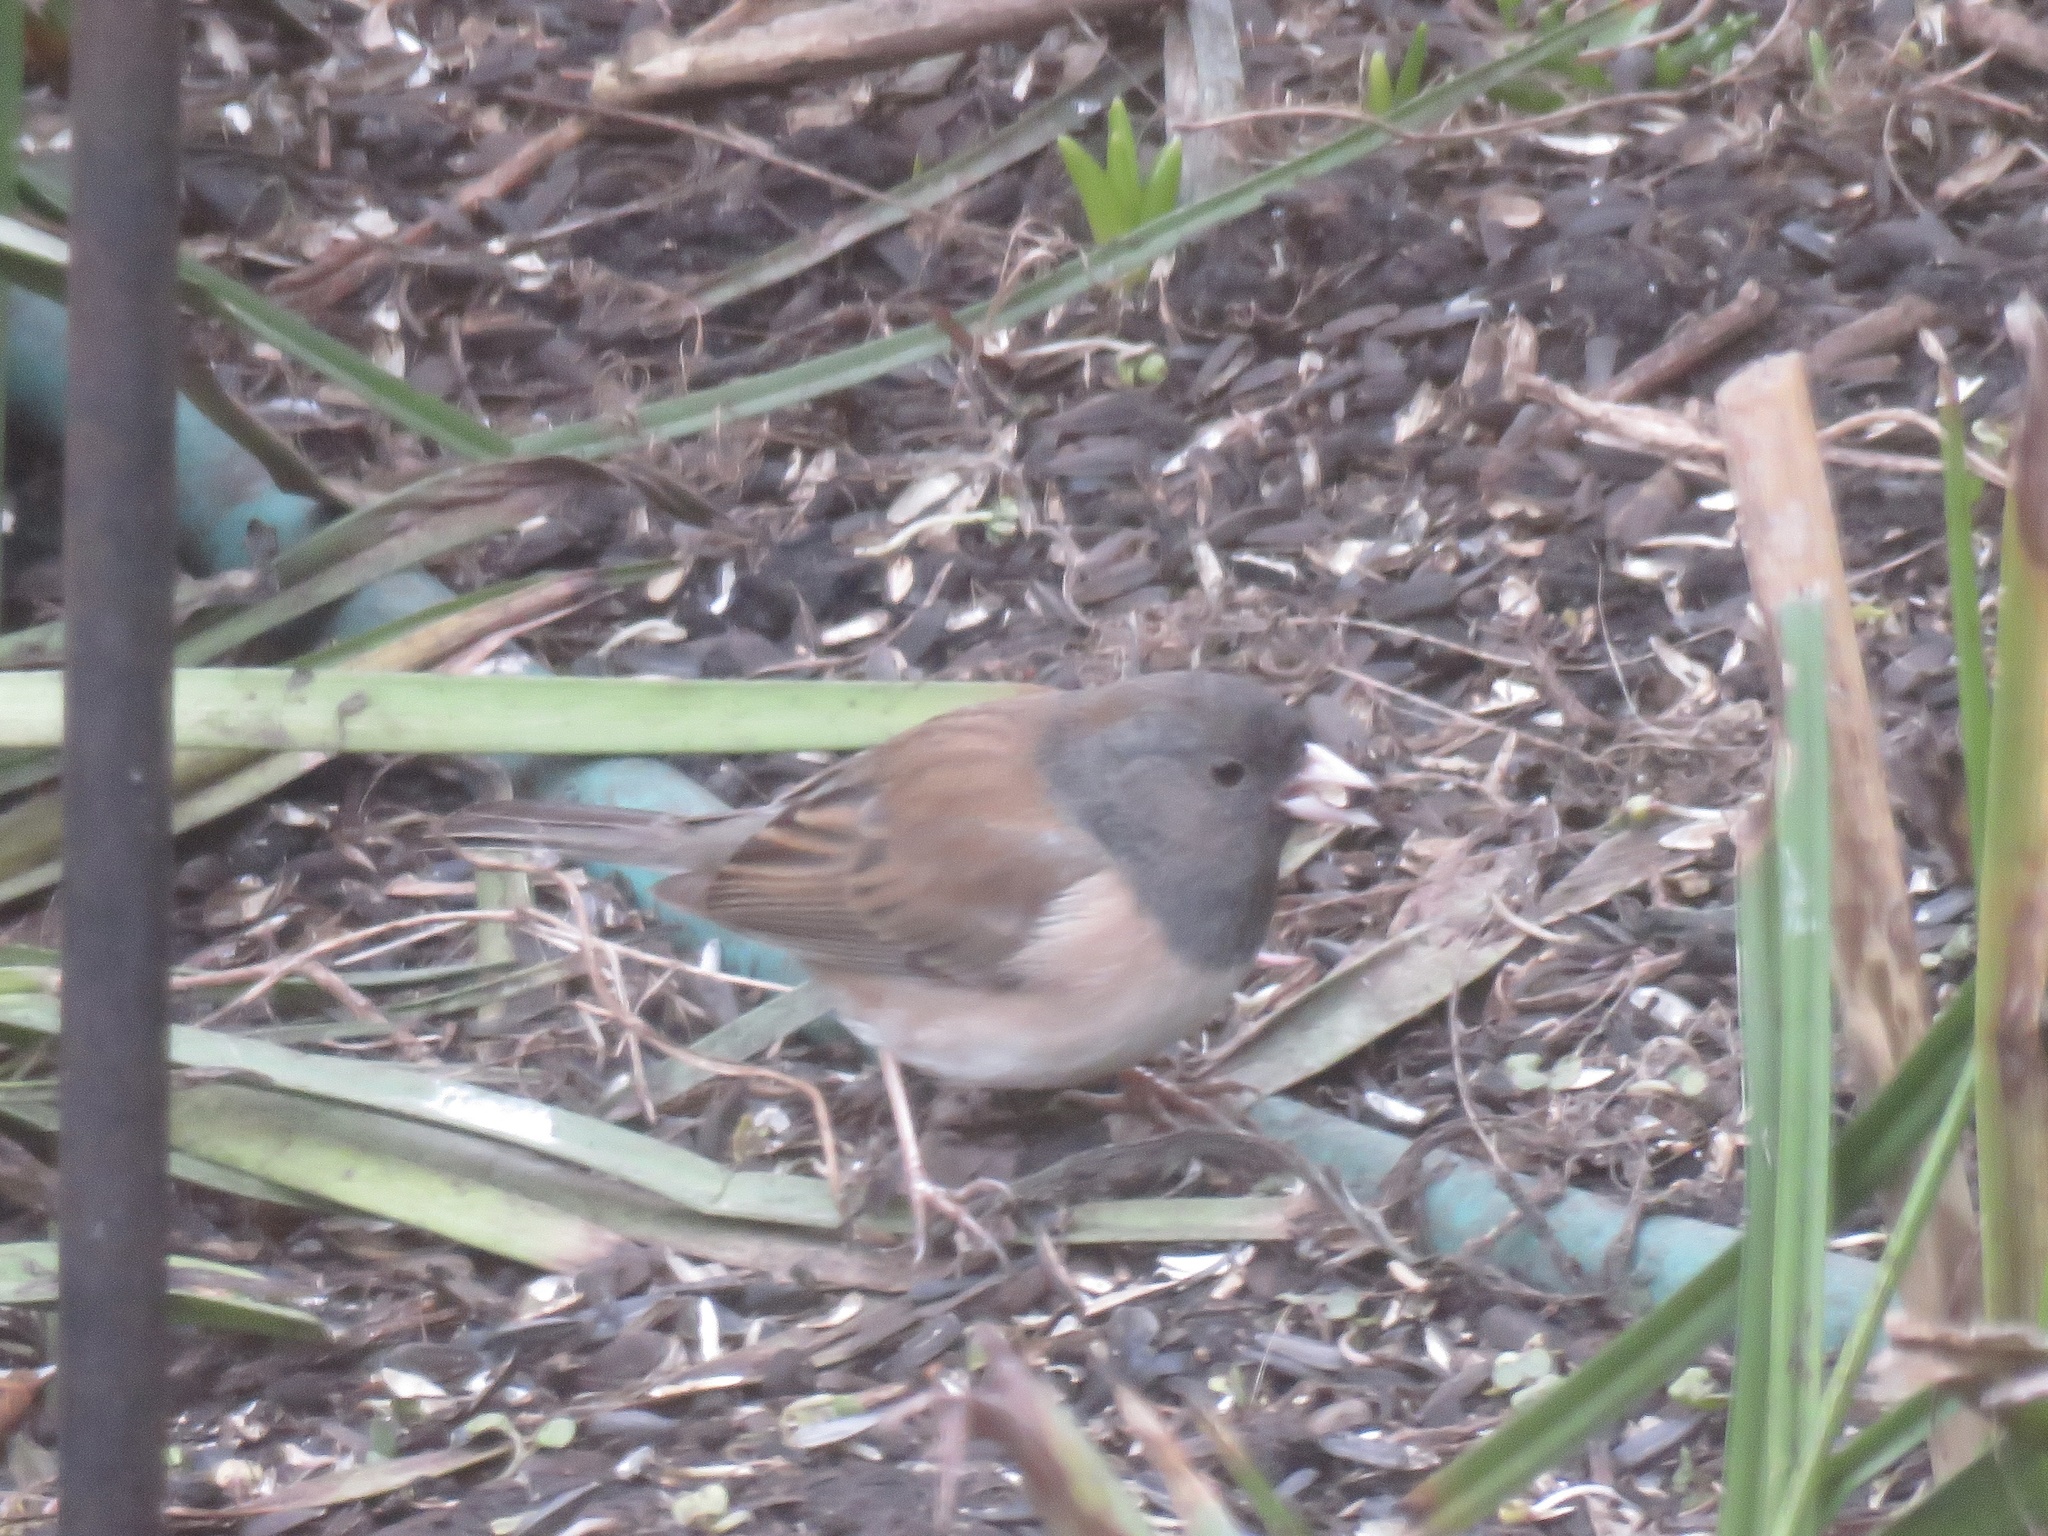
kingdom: Animalia
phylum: Chordata
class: Aves
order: Passeriformes
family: Passerellidae
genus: Junco
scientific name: Junco hyemalis
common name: Dark-eyed junco
